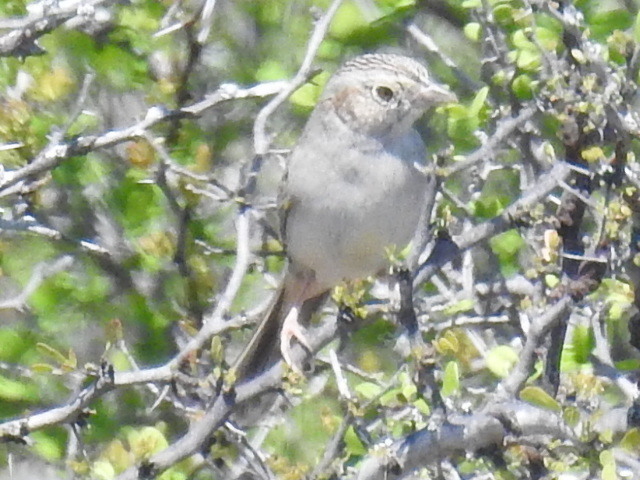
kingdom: Animalia
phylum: Chordata
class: Aves
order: Passeriformes
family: Passerellidae
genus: Peucaea
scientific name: Peucaea cassinii
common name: Cassin's sparrow
